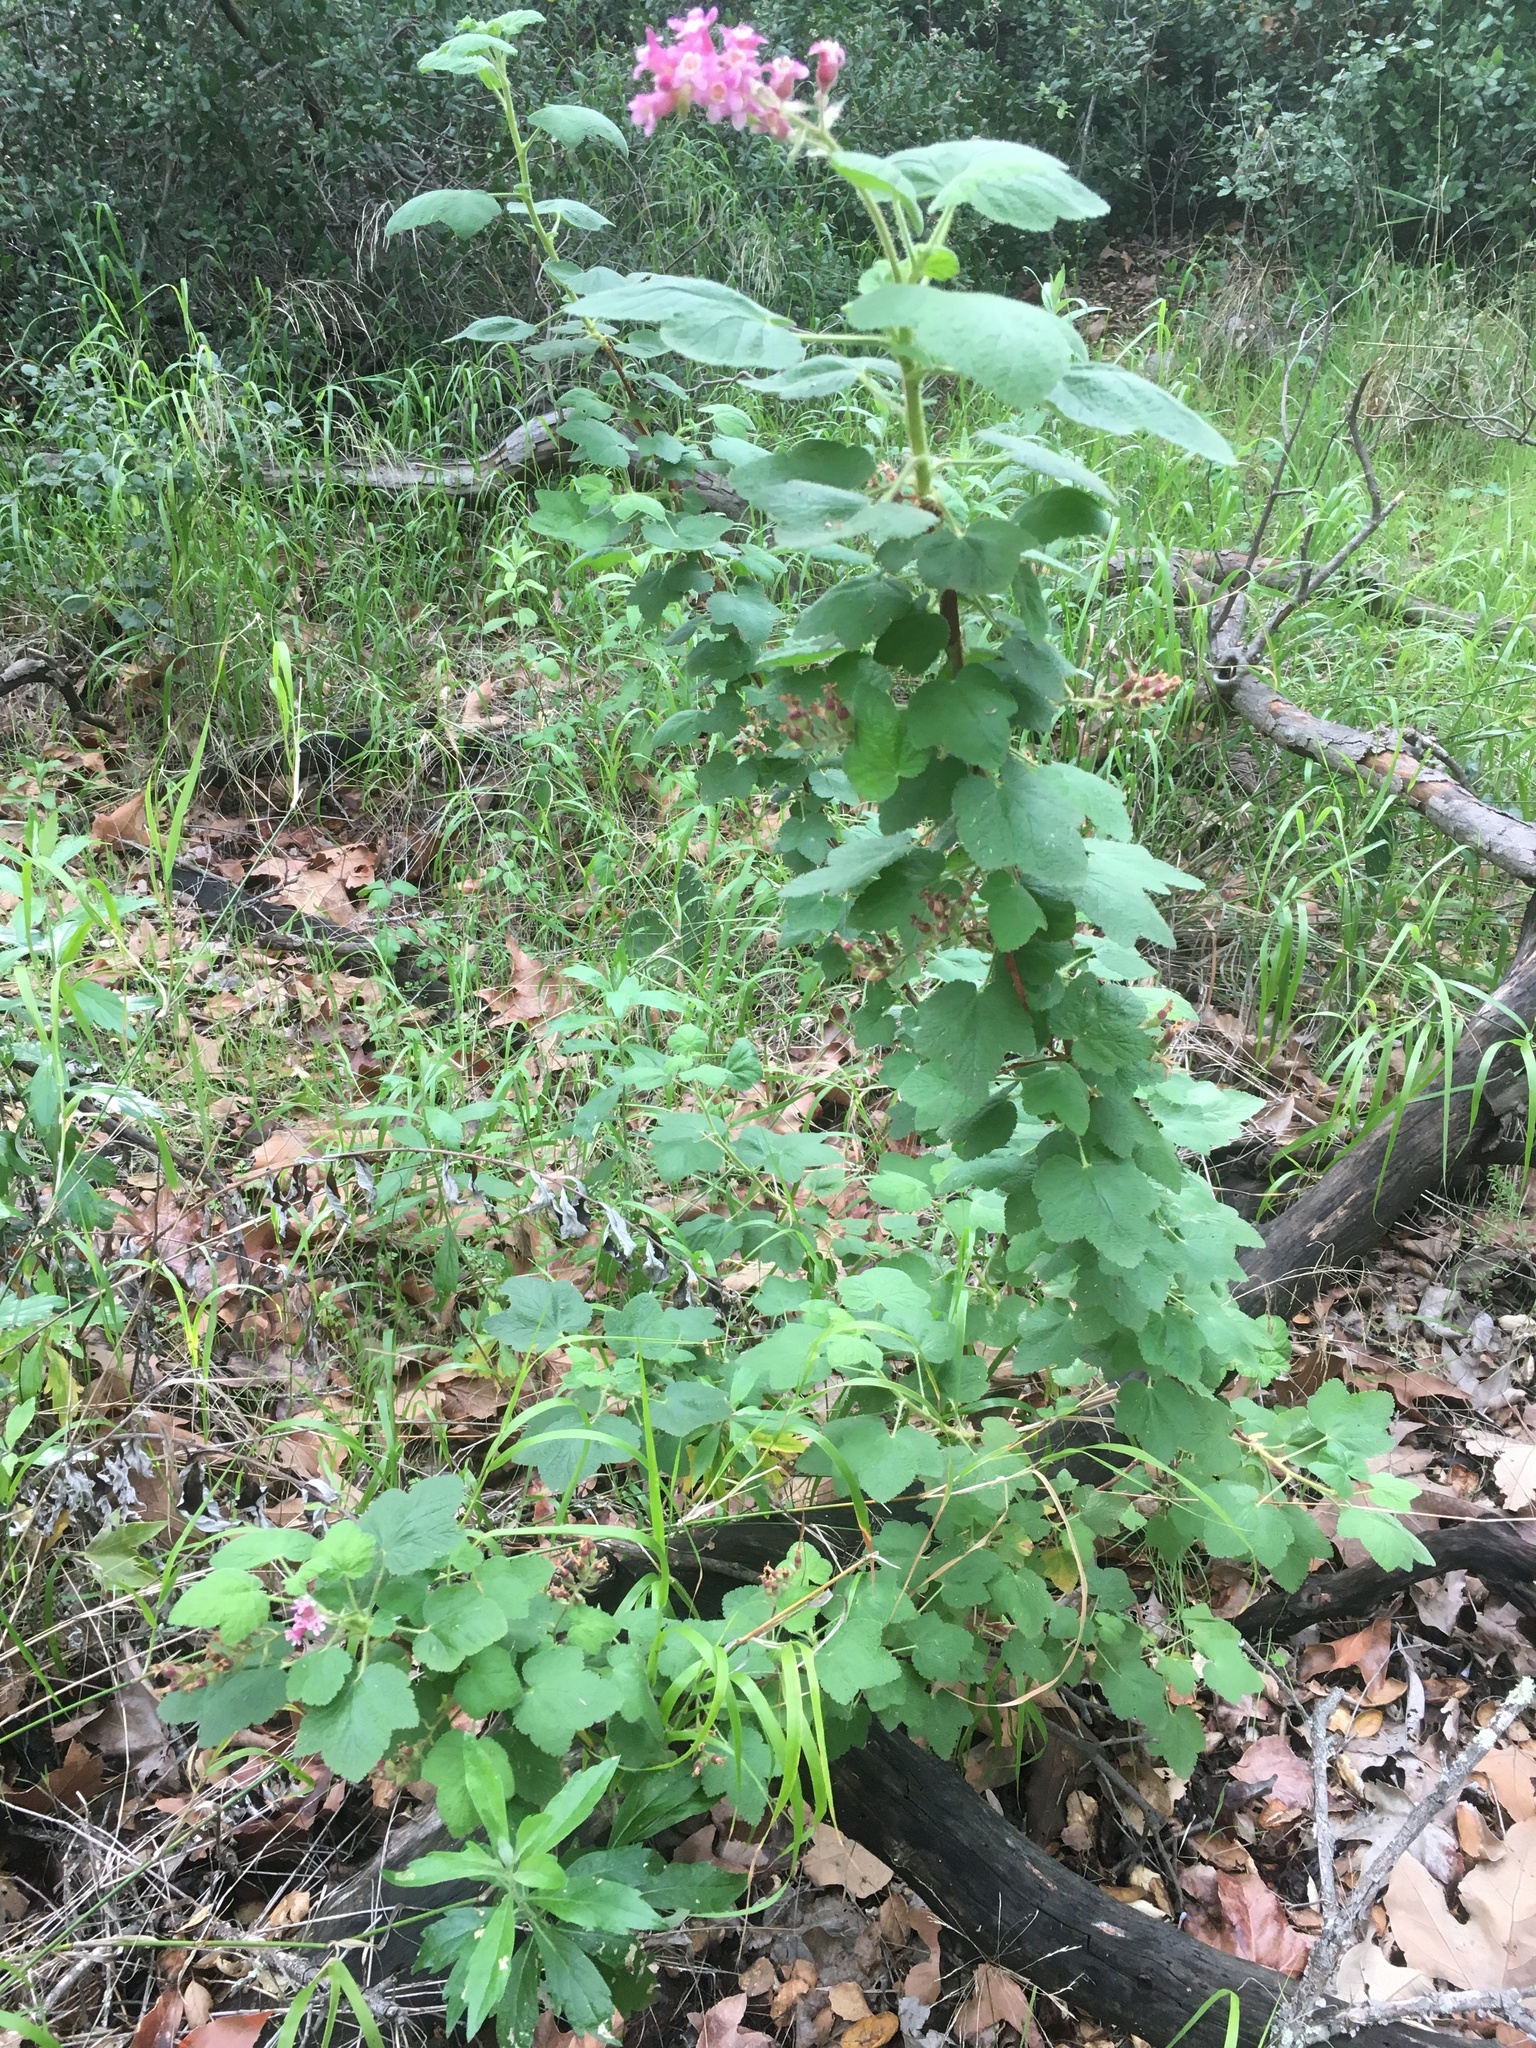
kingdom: Plantae
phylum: Tracheophyta
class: Magnoliopsida
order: Saxifragales
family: Grossulariaceae
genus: Ribes
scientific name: Ribes malvaceum
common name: Chaparral currant
